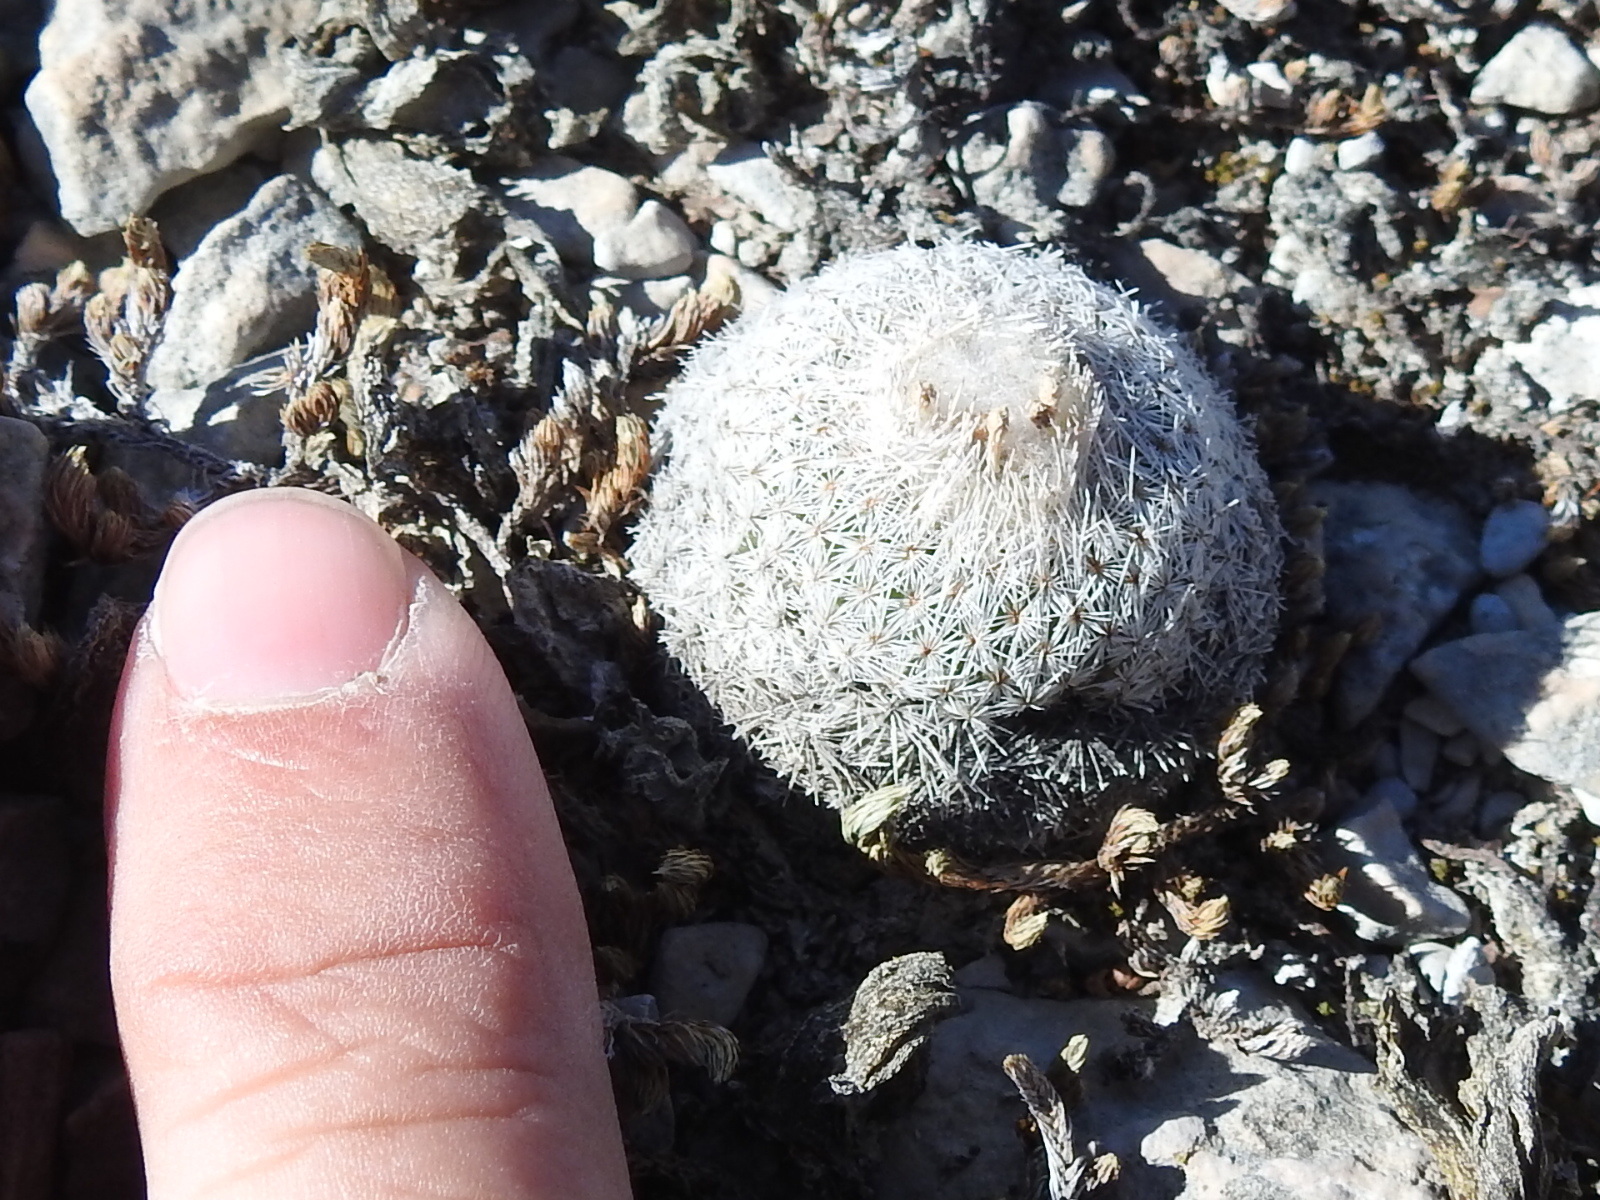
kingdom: Plantae
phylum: Tracheophyta
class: Magnoliopsida
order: Caryophyllales
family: Cactaceae
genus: Epithelantha
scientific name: Epithelantha micromeris
